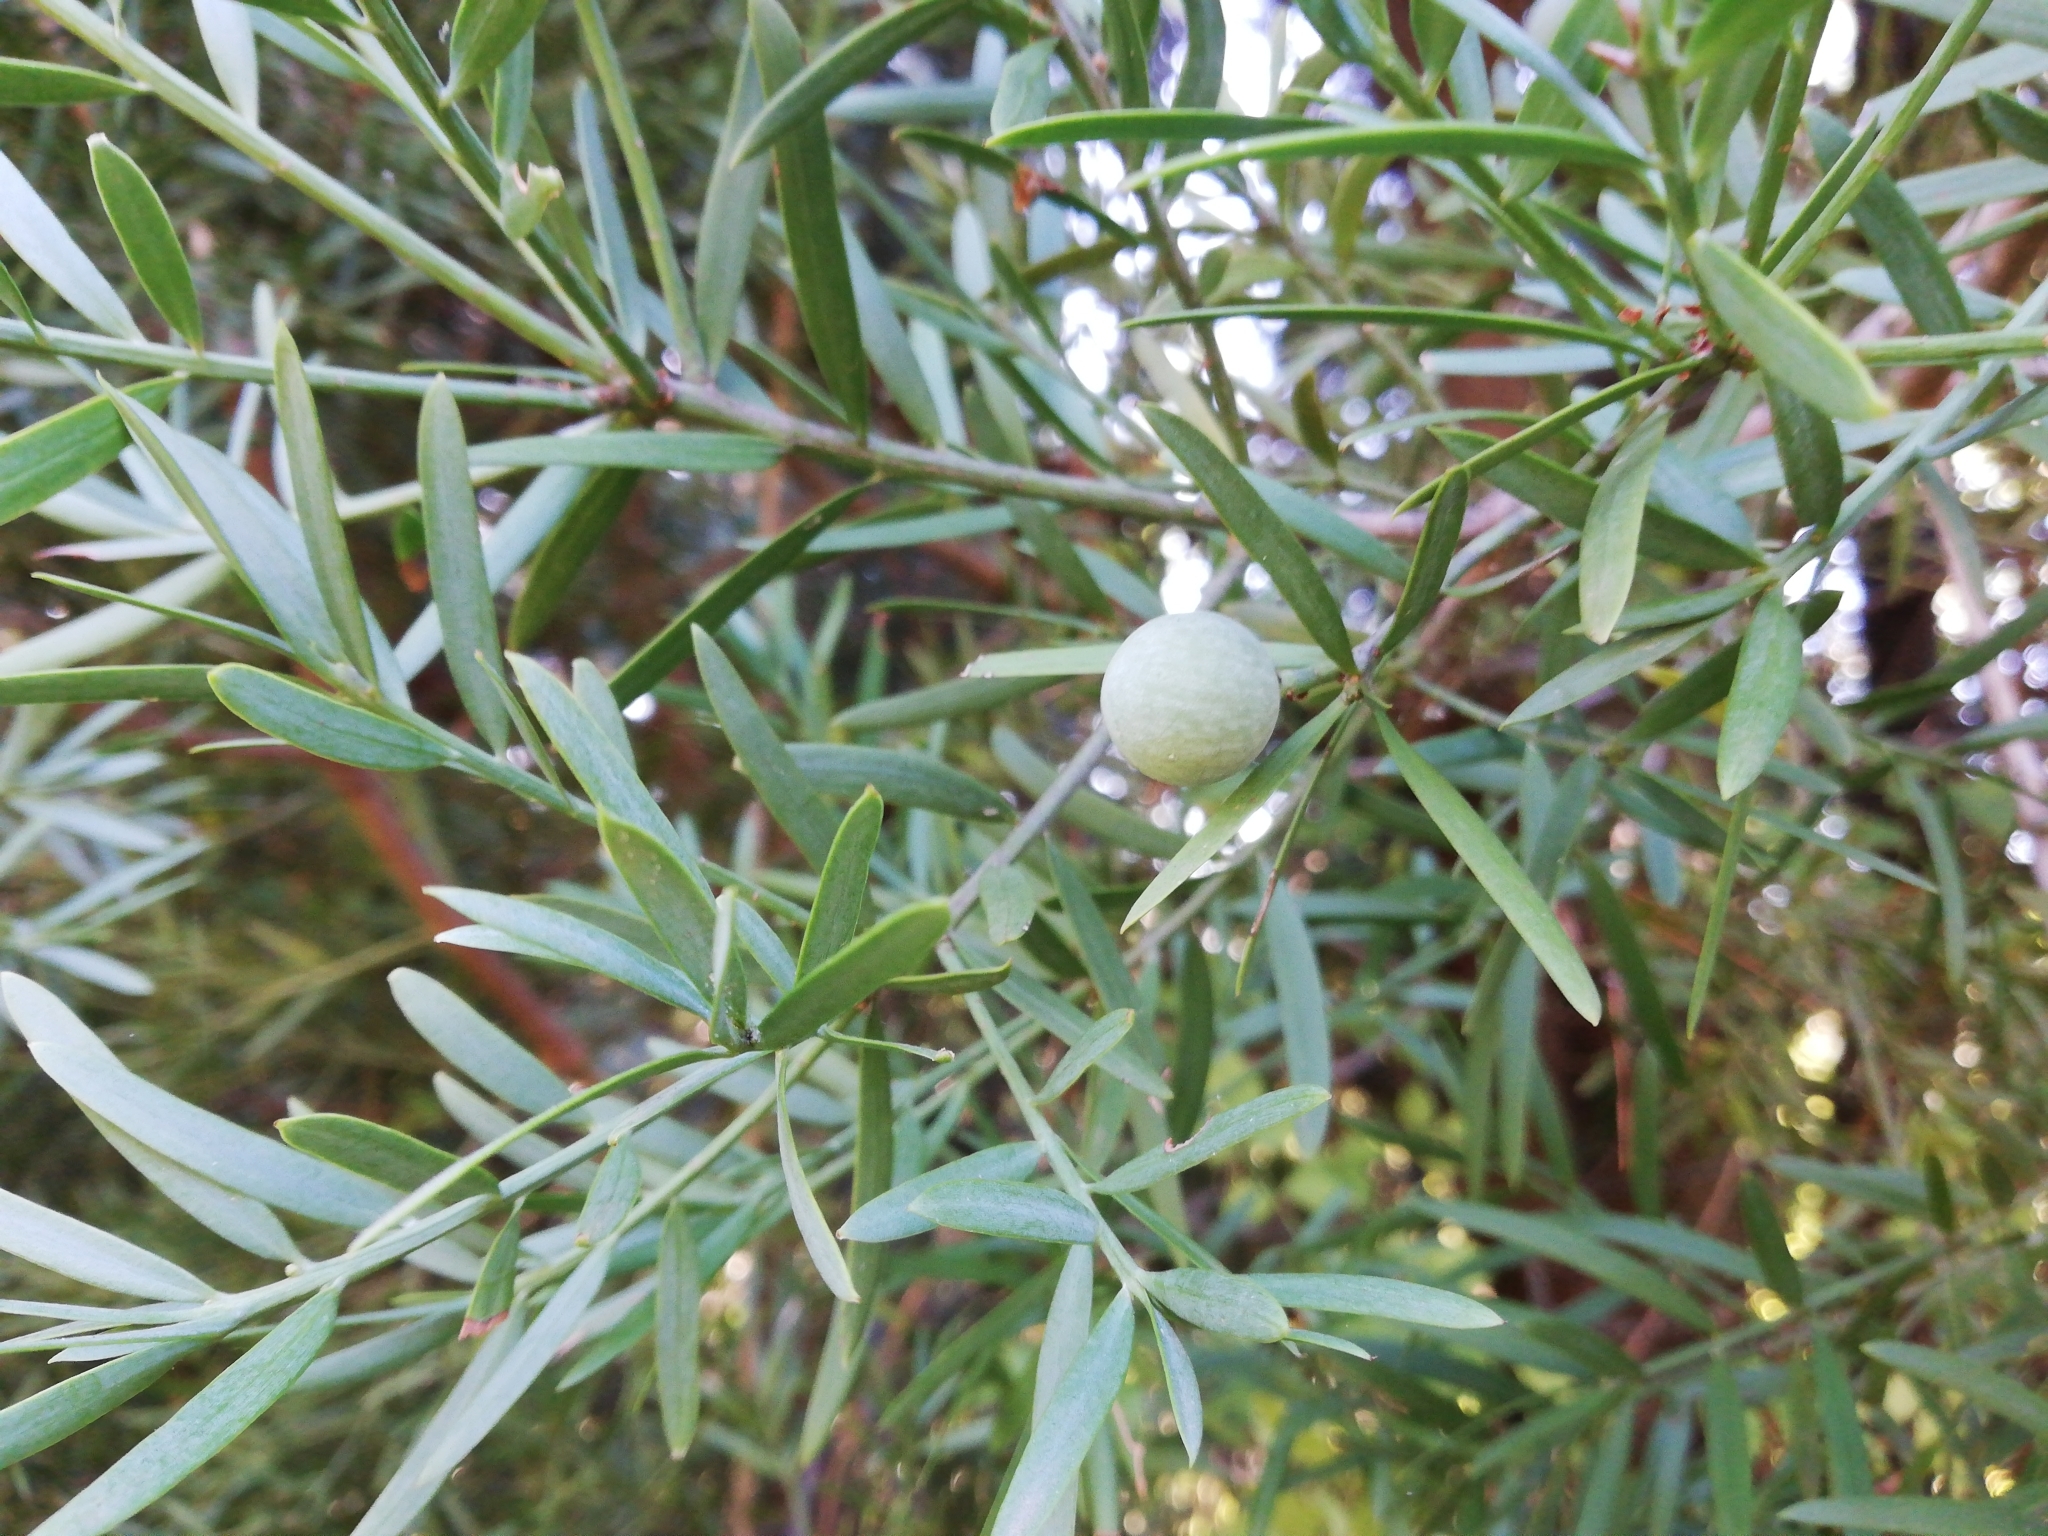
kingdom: Plantae
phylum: Tracheophyta
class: Pinopsida
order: Pinales
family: Podocarpaceae
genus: Afrocarpus
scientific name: Afrocarpus falcatus
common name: Bastard yellowwood
